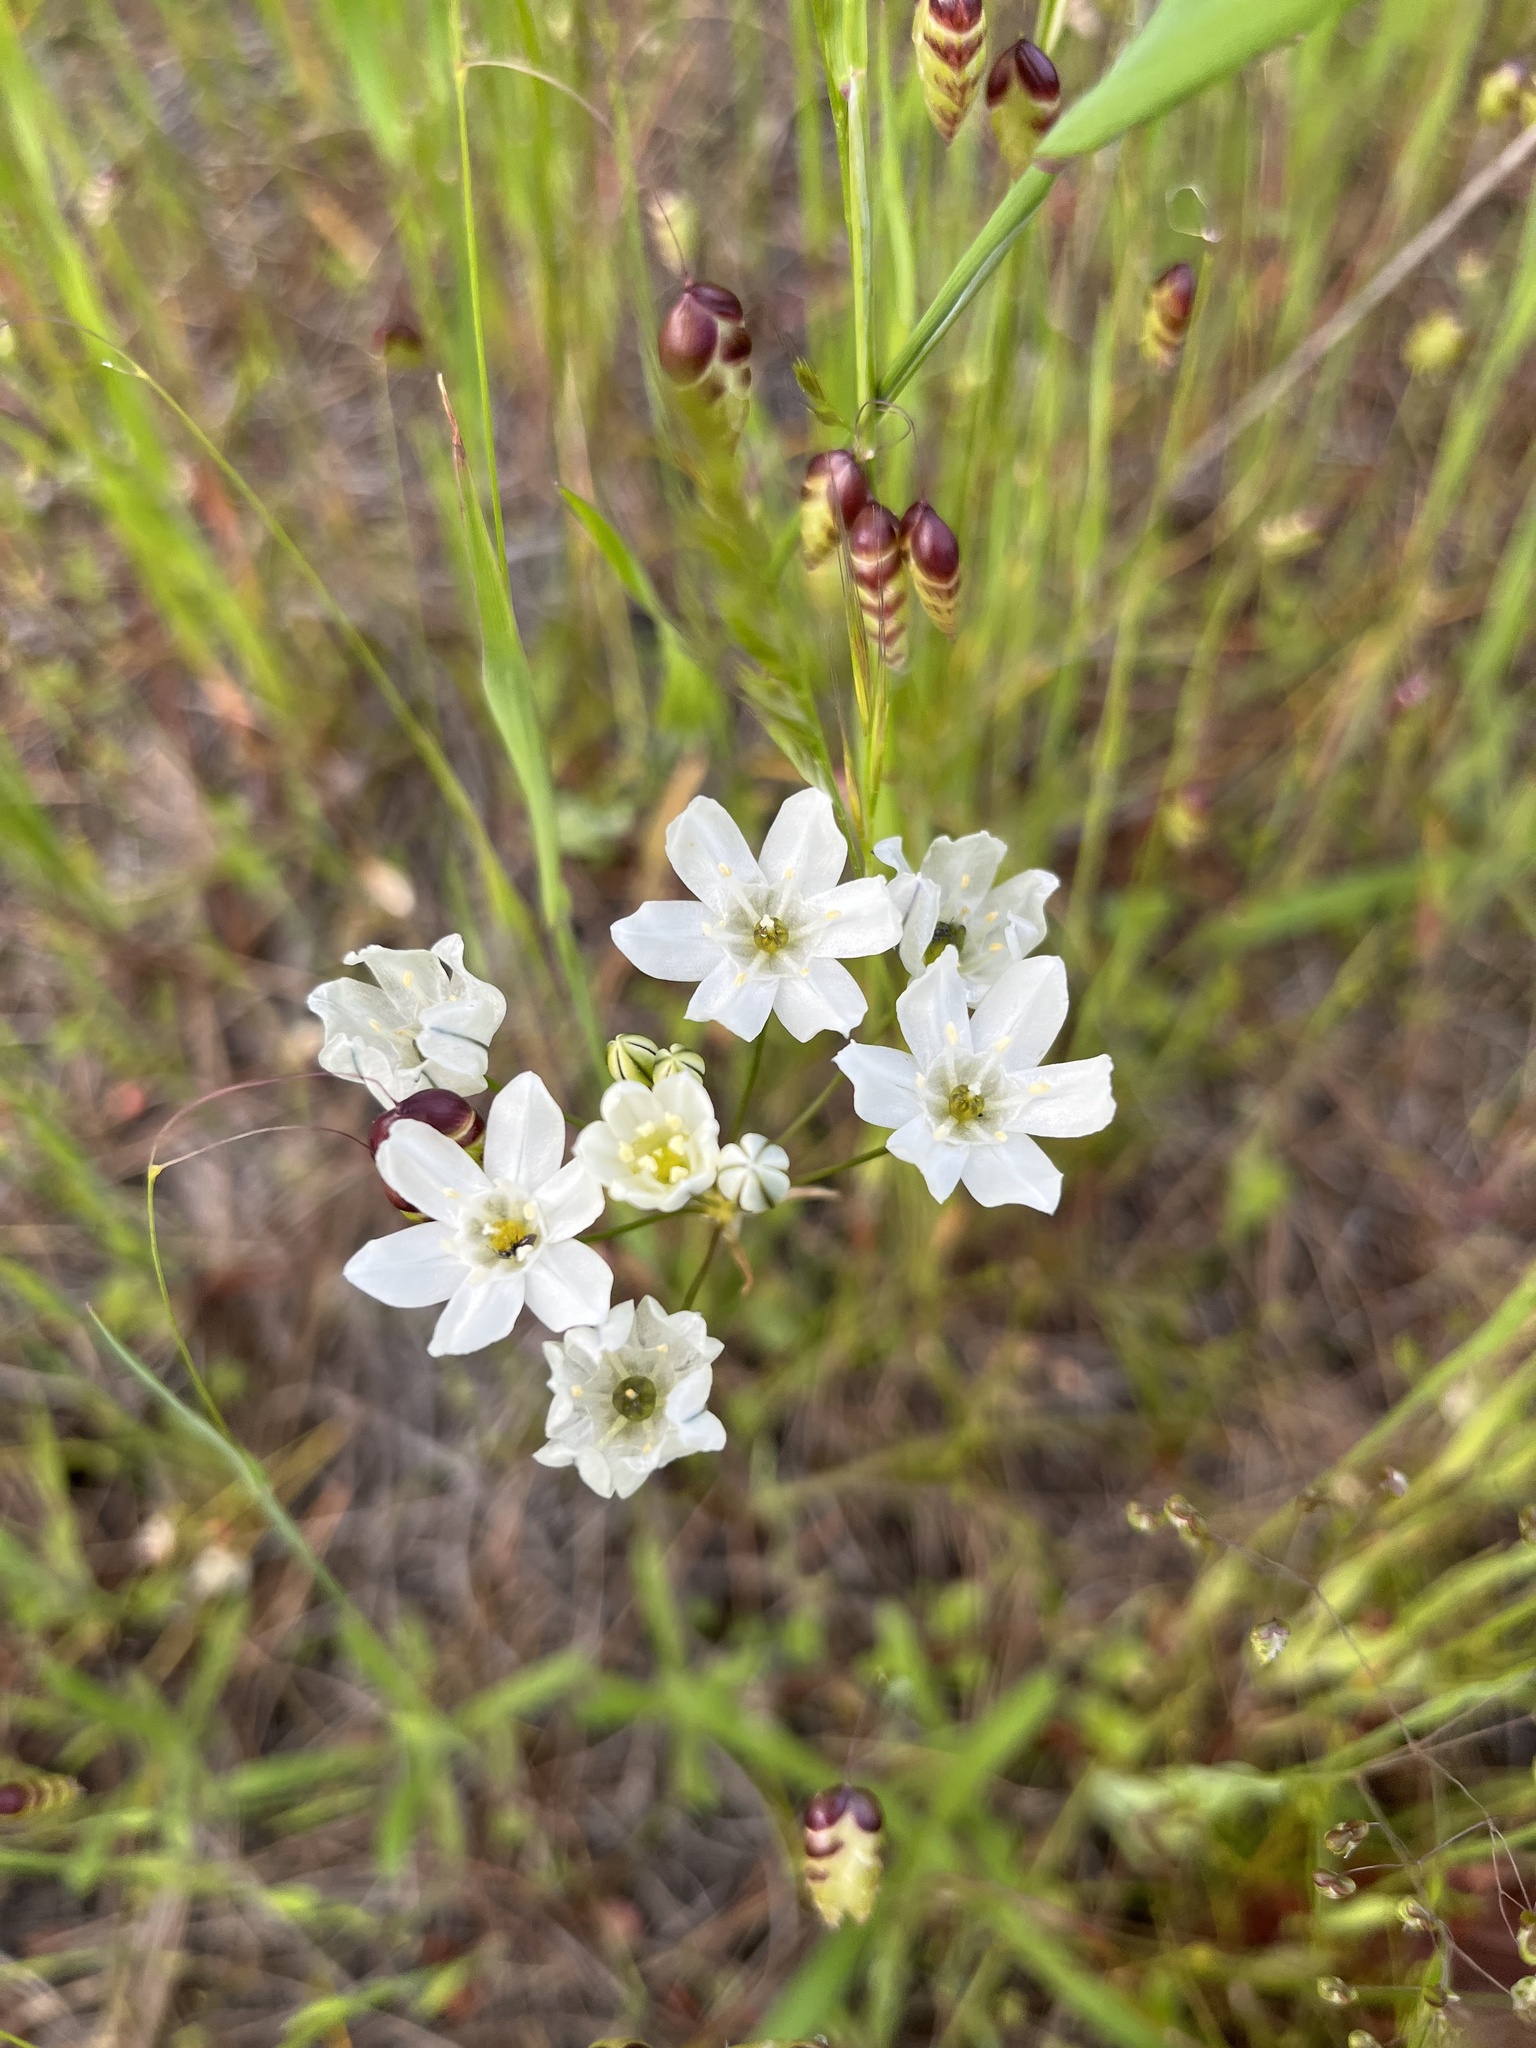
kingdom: Plantae
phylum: Tracheophyta
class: Liliopsida
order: Asparagales
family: Asparagaceae
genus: Triteleia
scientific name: Triteleia hyacinthina
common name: White brodiaea
